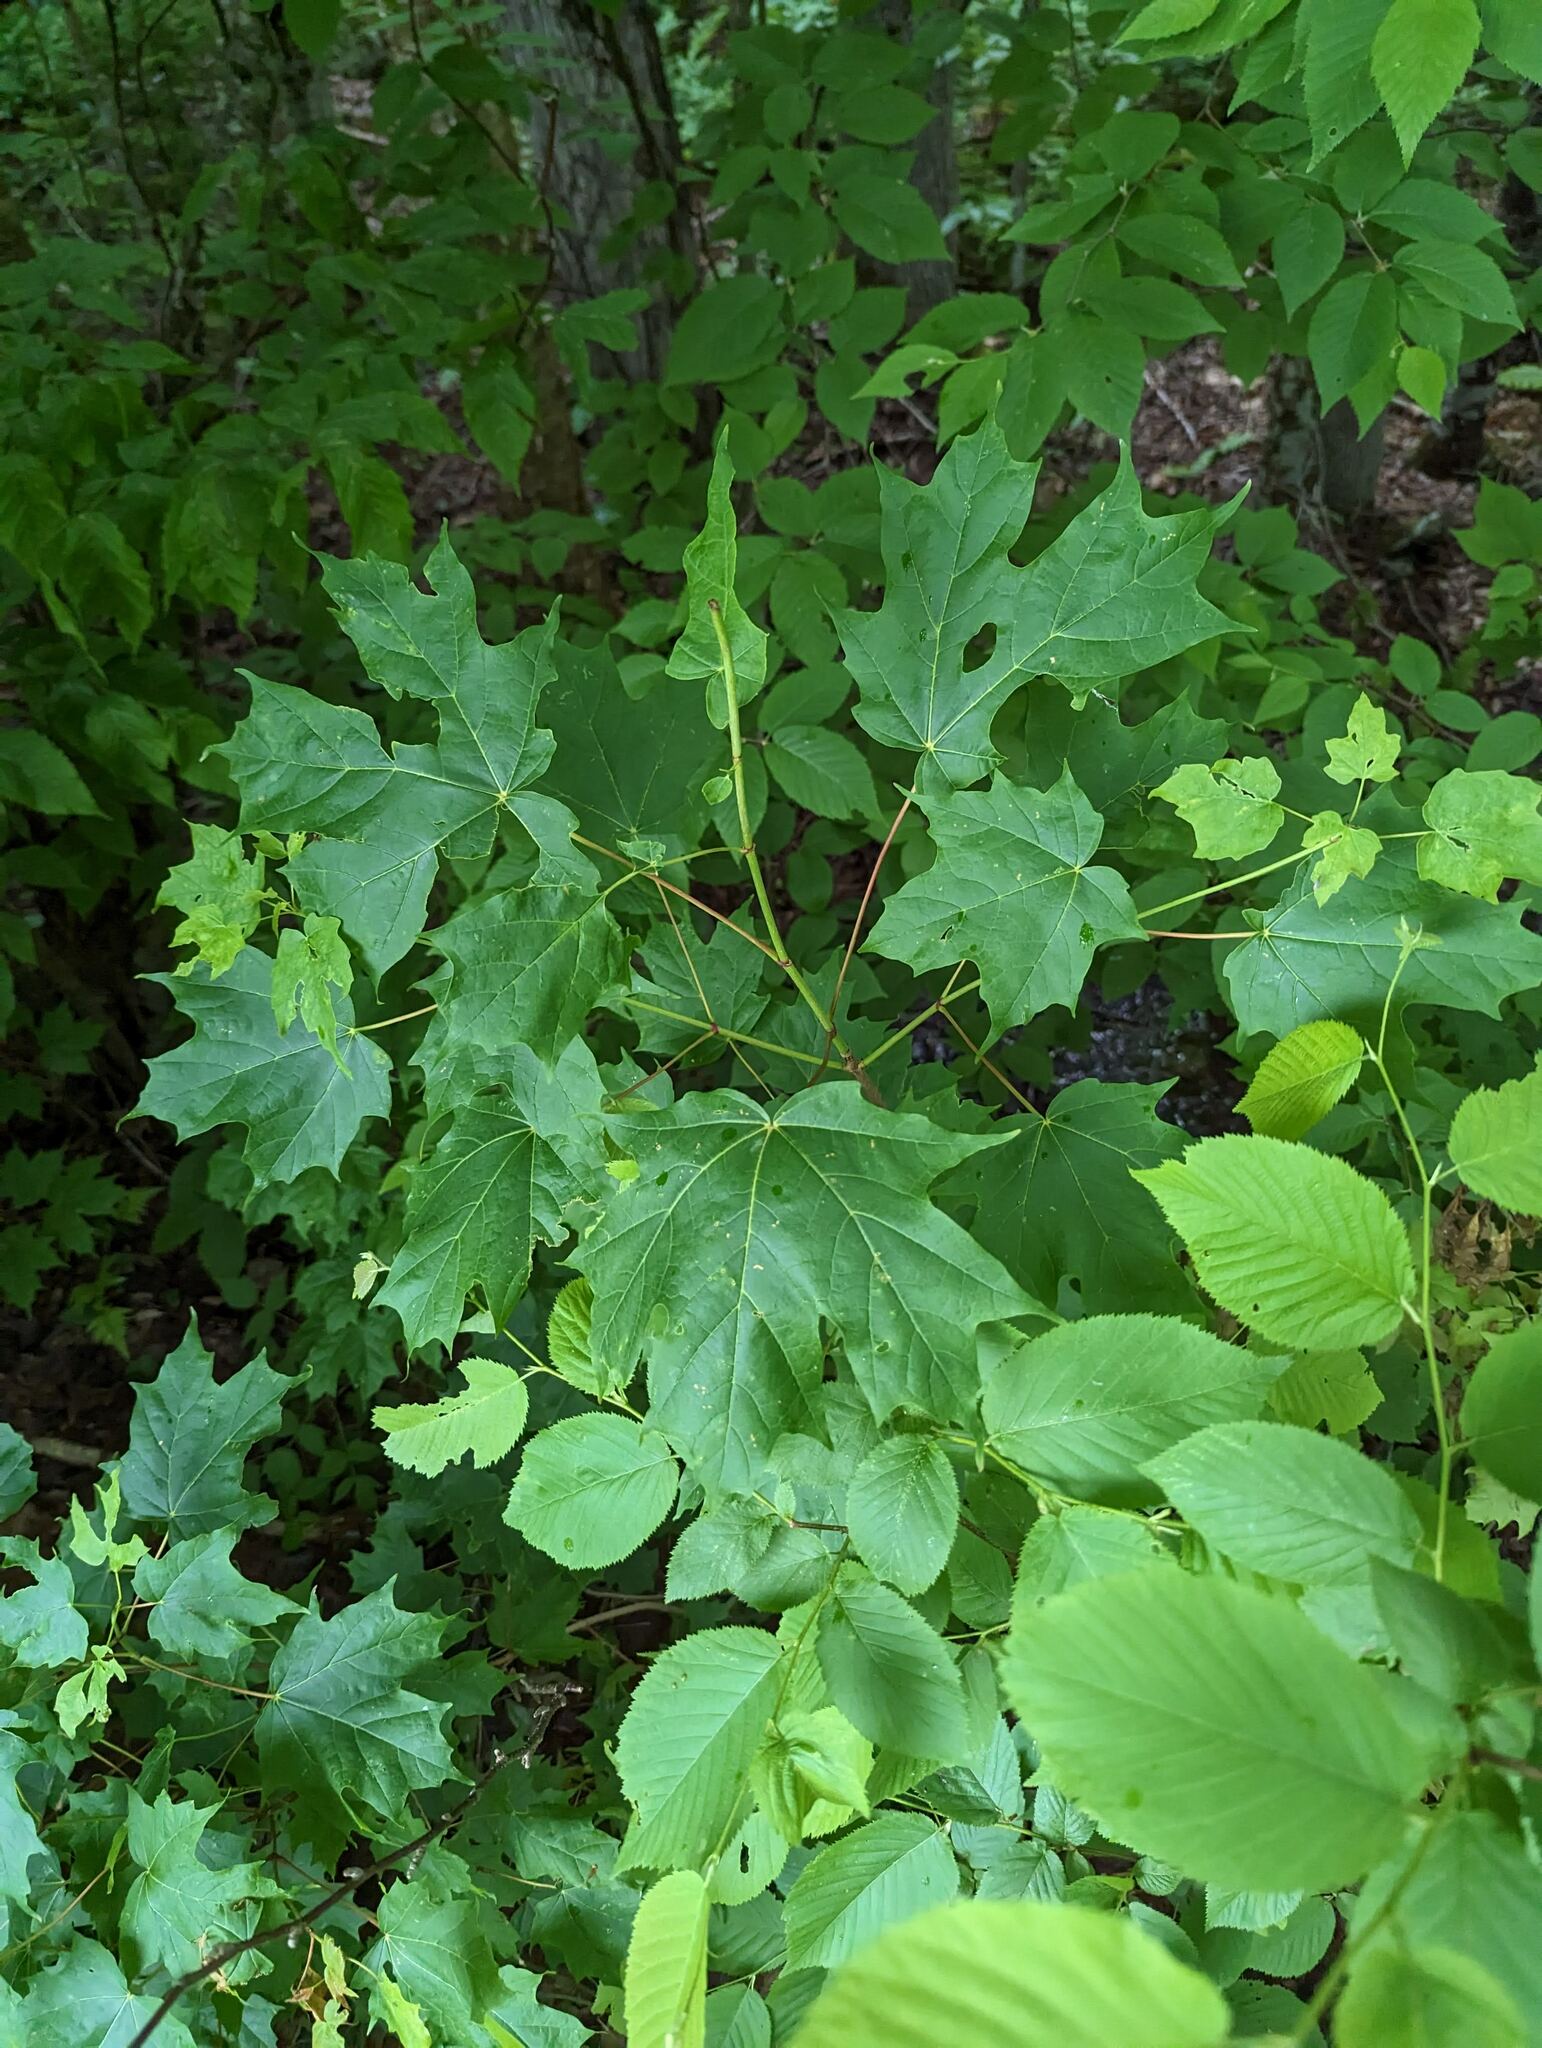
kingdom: Plantae
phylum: Tracheophyta
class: Magnoliopsida
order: Sapindales
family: Sapindaceae
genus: Acer
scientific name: Acer saccharum
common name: Sugar maple
